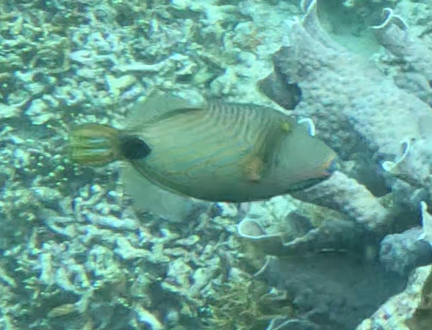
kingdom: Animalia
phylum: Chordata
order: Tetraodontiformes
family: Balistidae
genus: Balistapus
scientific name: Balistapus undulatus
